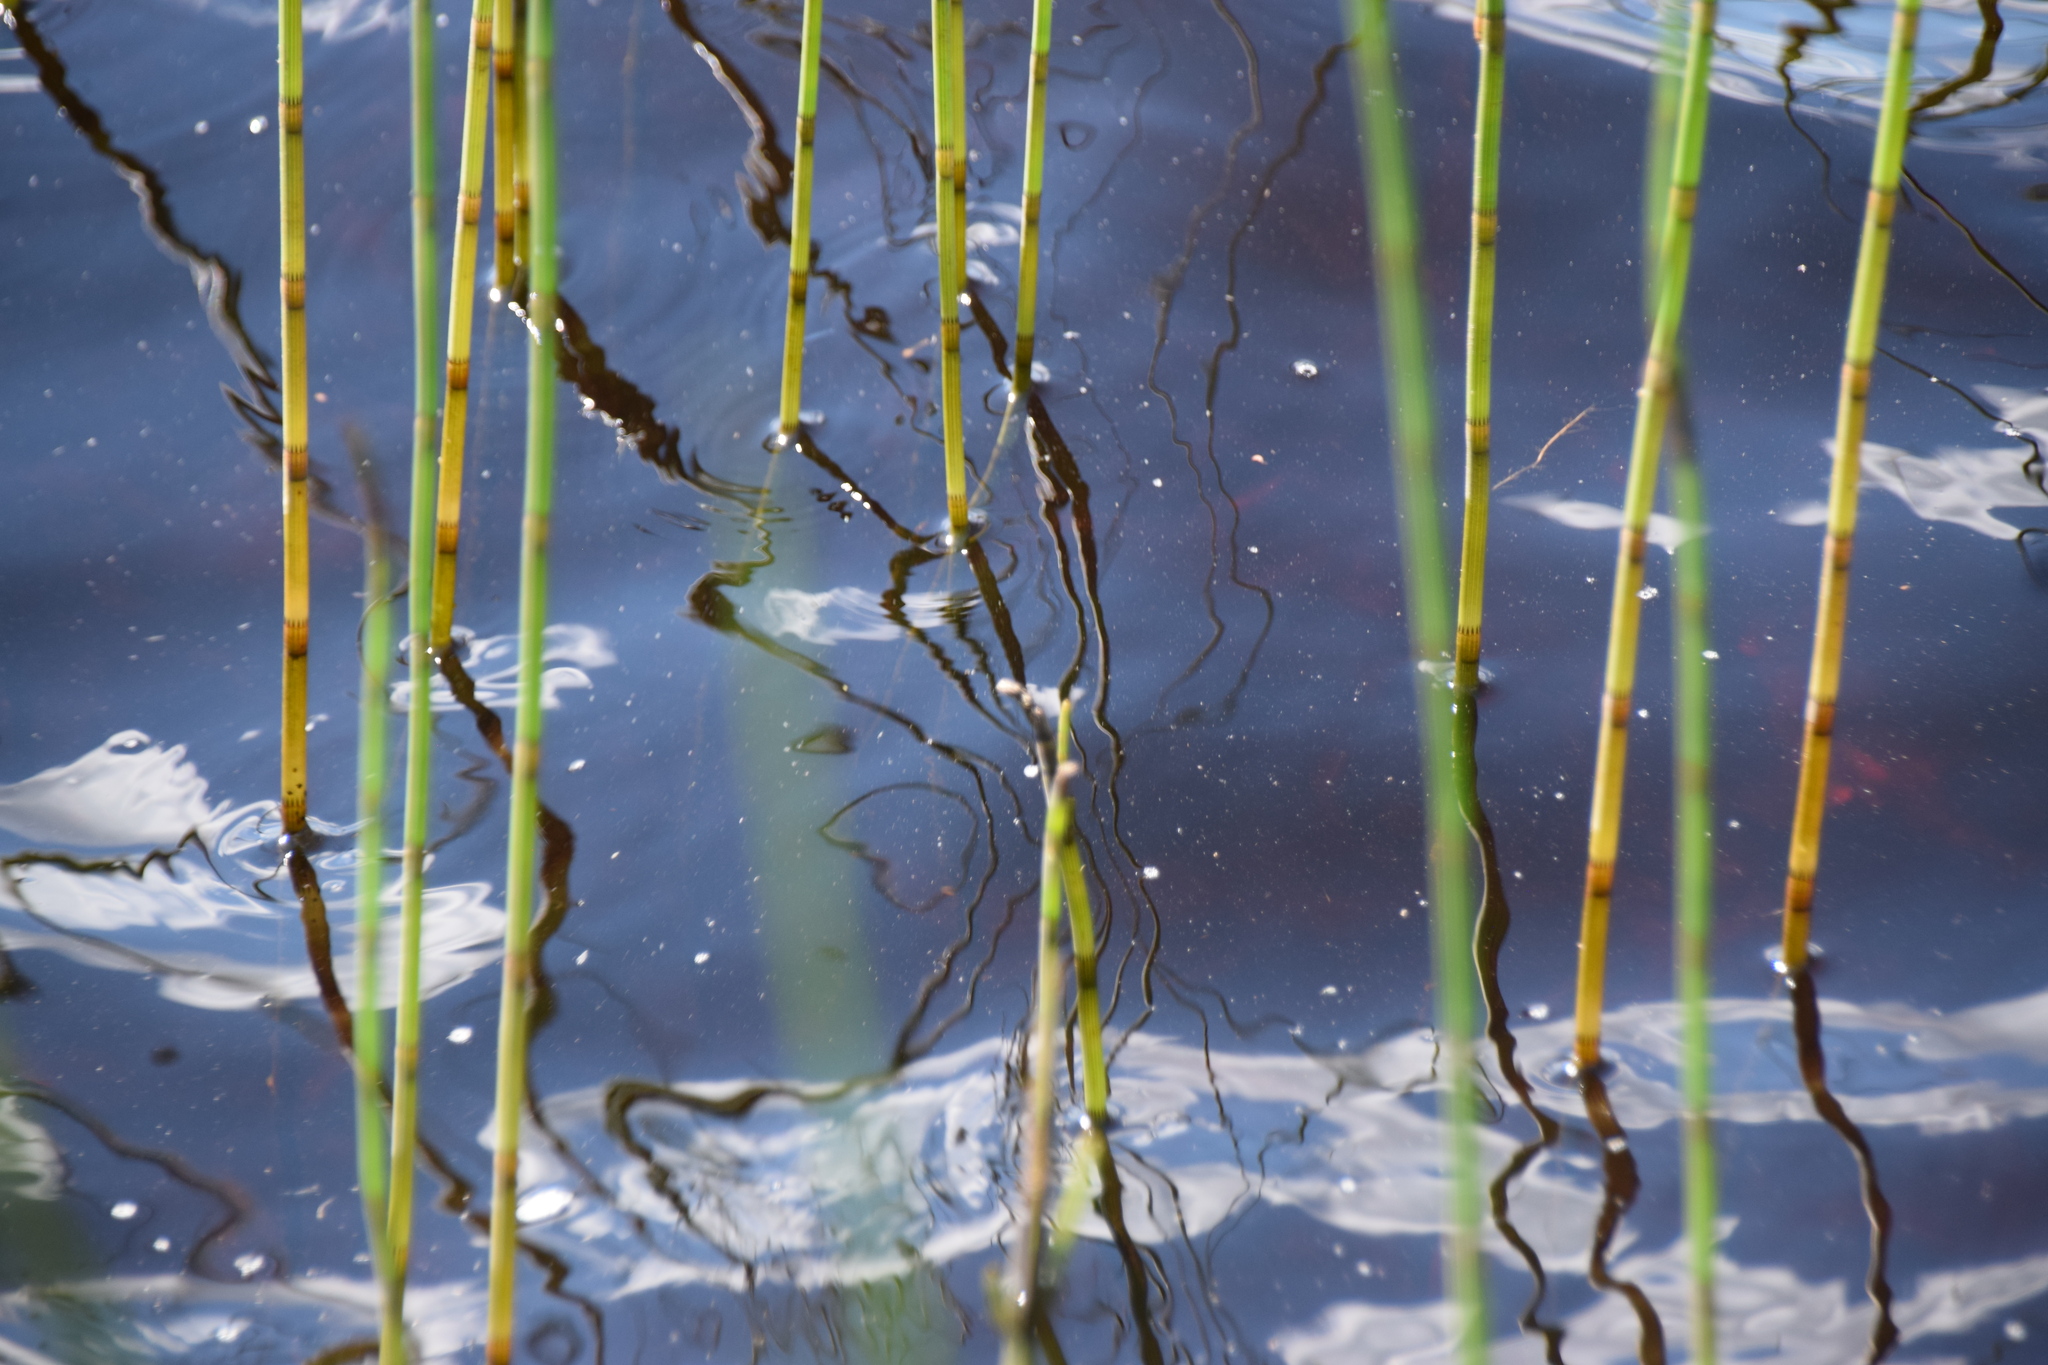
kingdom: Plantae
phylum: Tracheophyta
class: Polypodiopsida
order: Equisetales
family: Equisetaceae
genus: Equisetum
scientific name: Equisetum fluviatile
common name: Water horsetail
